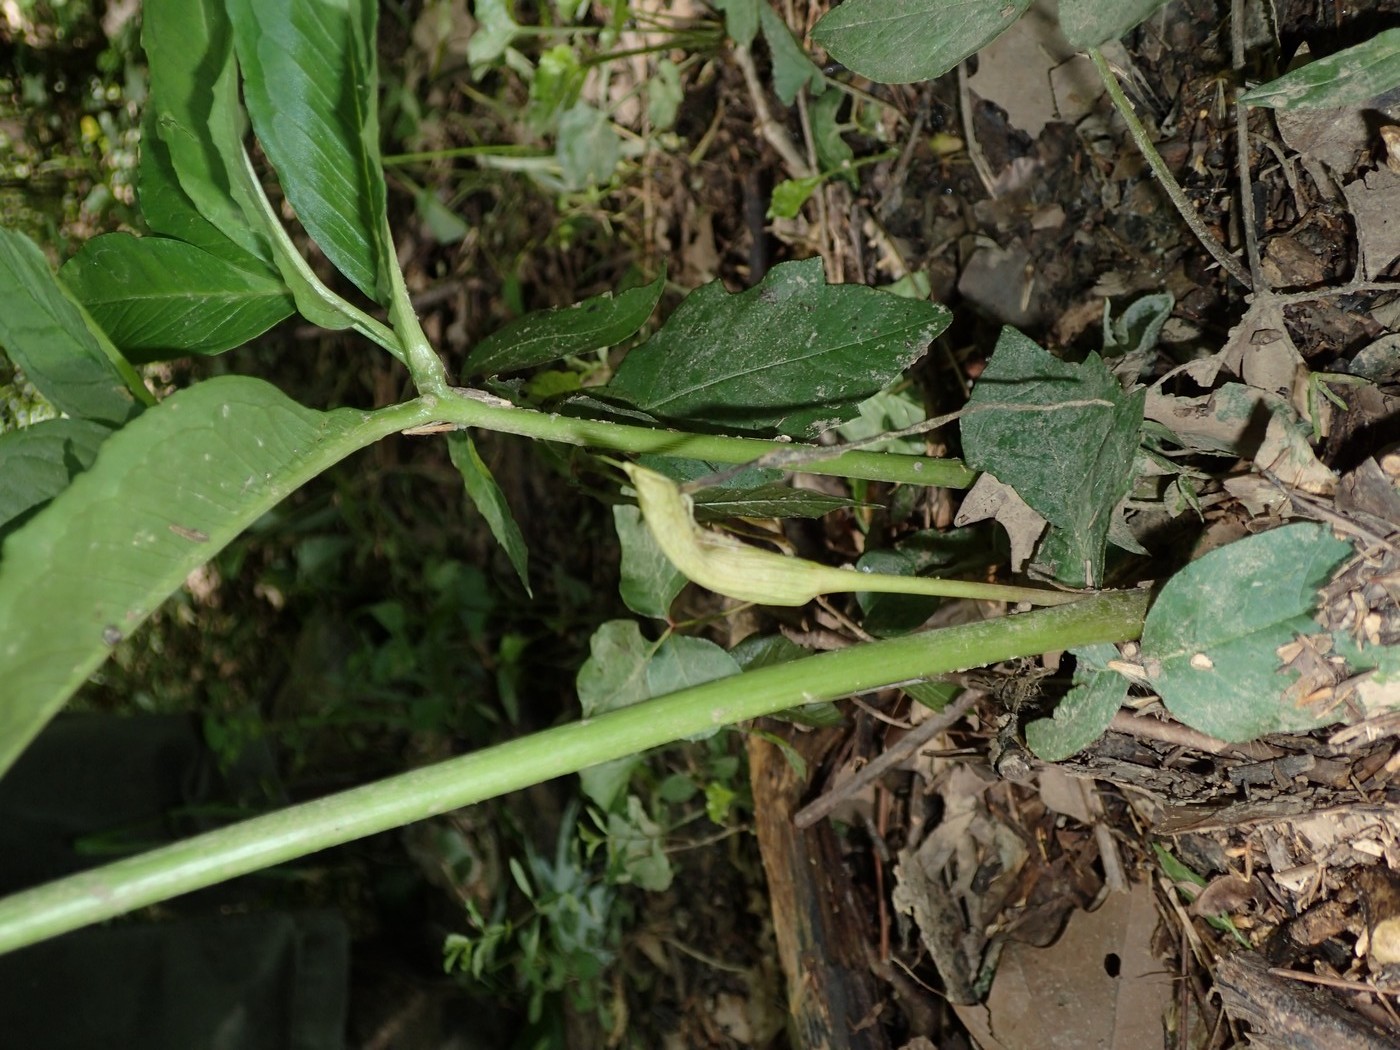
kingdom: Plantae
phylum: Tracheophyta
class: Liliopsida
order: Alismatales
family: Araceae
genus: Arisaema
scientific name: Arisaema dracontium
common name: Dragon-arum
